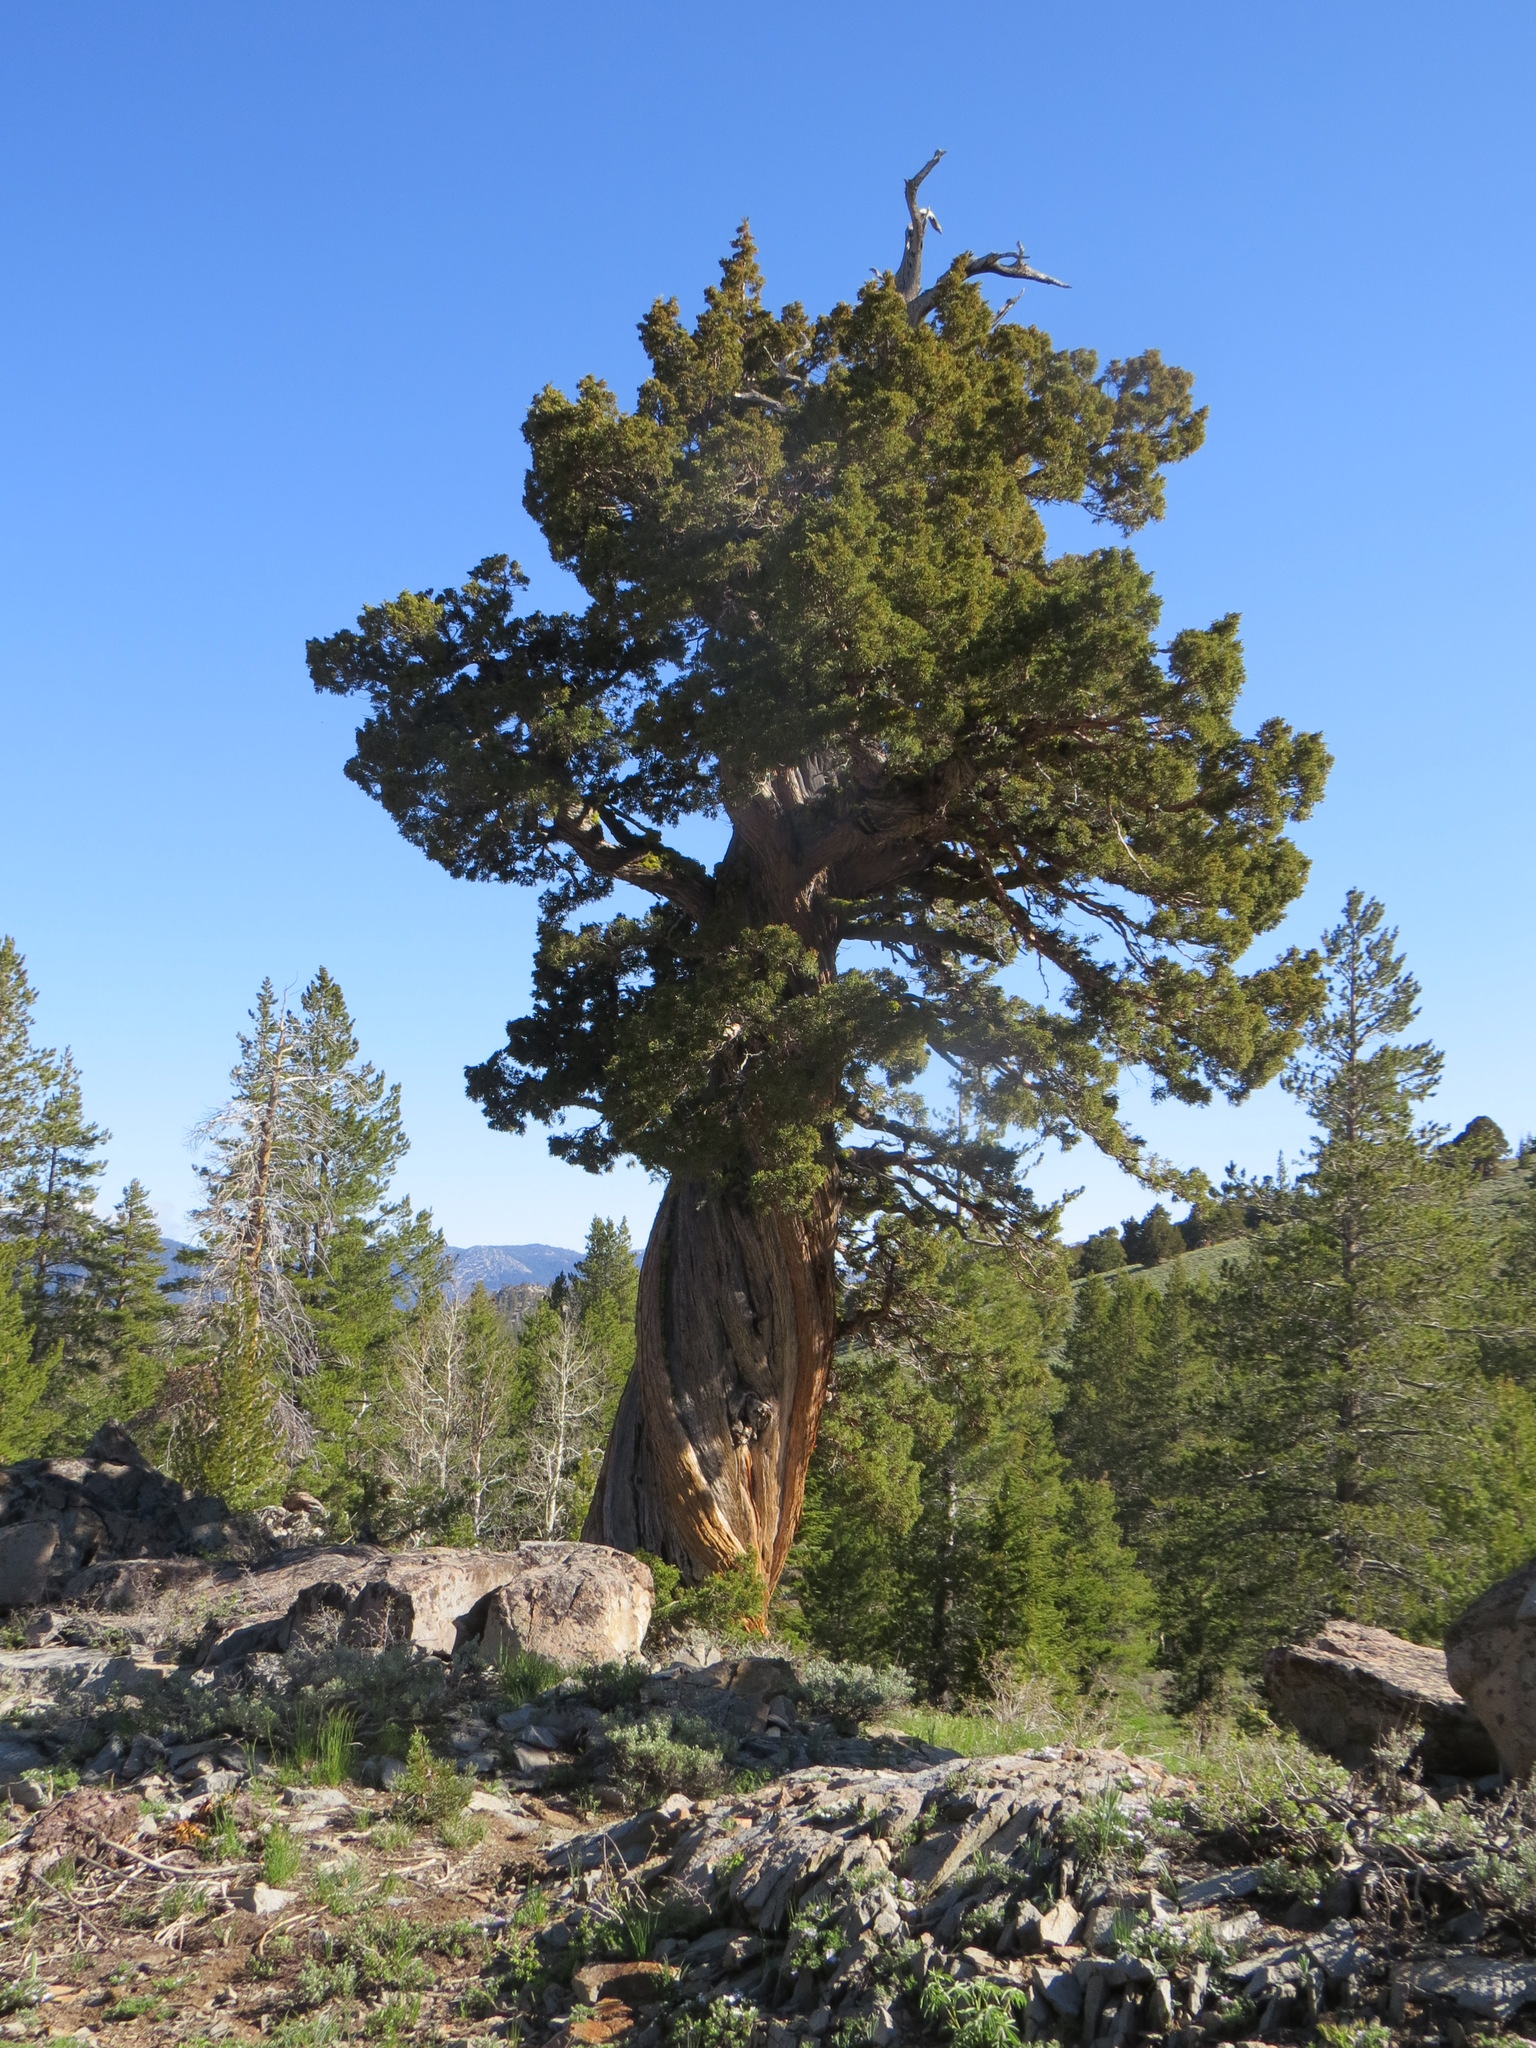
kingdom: Plantae
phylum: Tracheophyta
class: Pinopsida
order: Pinales
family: Cupressaceae
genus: Juniperus
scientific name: Juniperus occidentalis
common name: Western juniper
